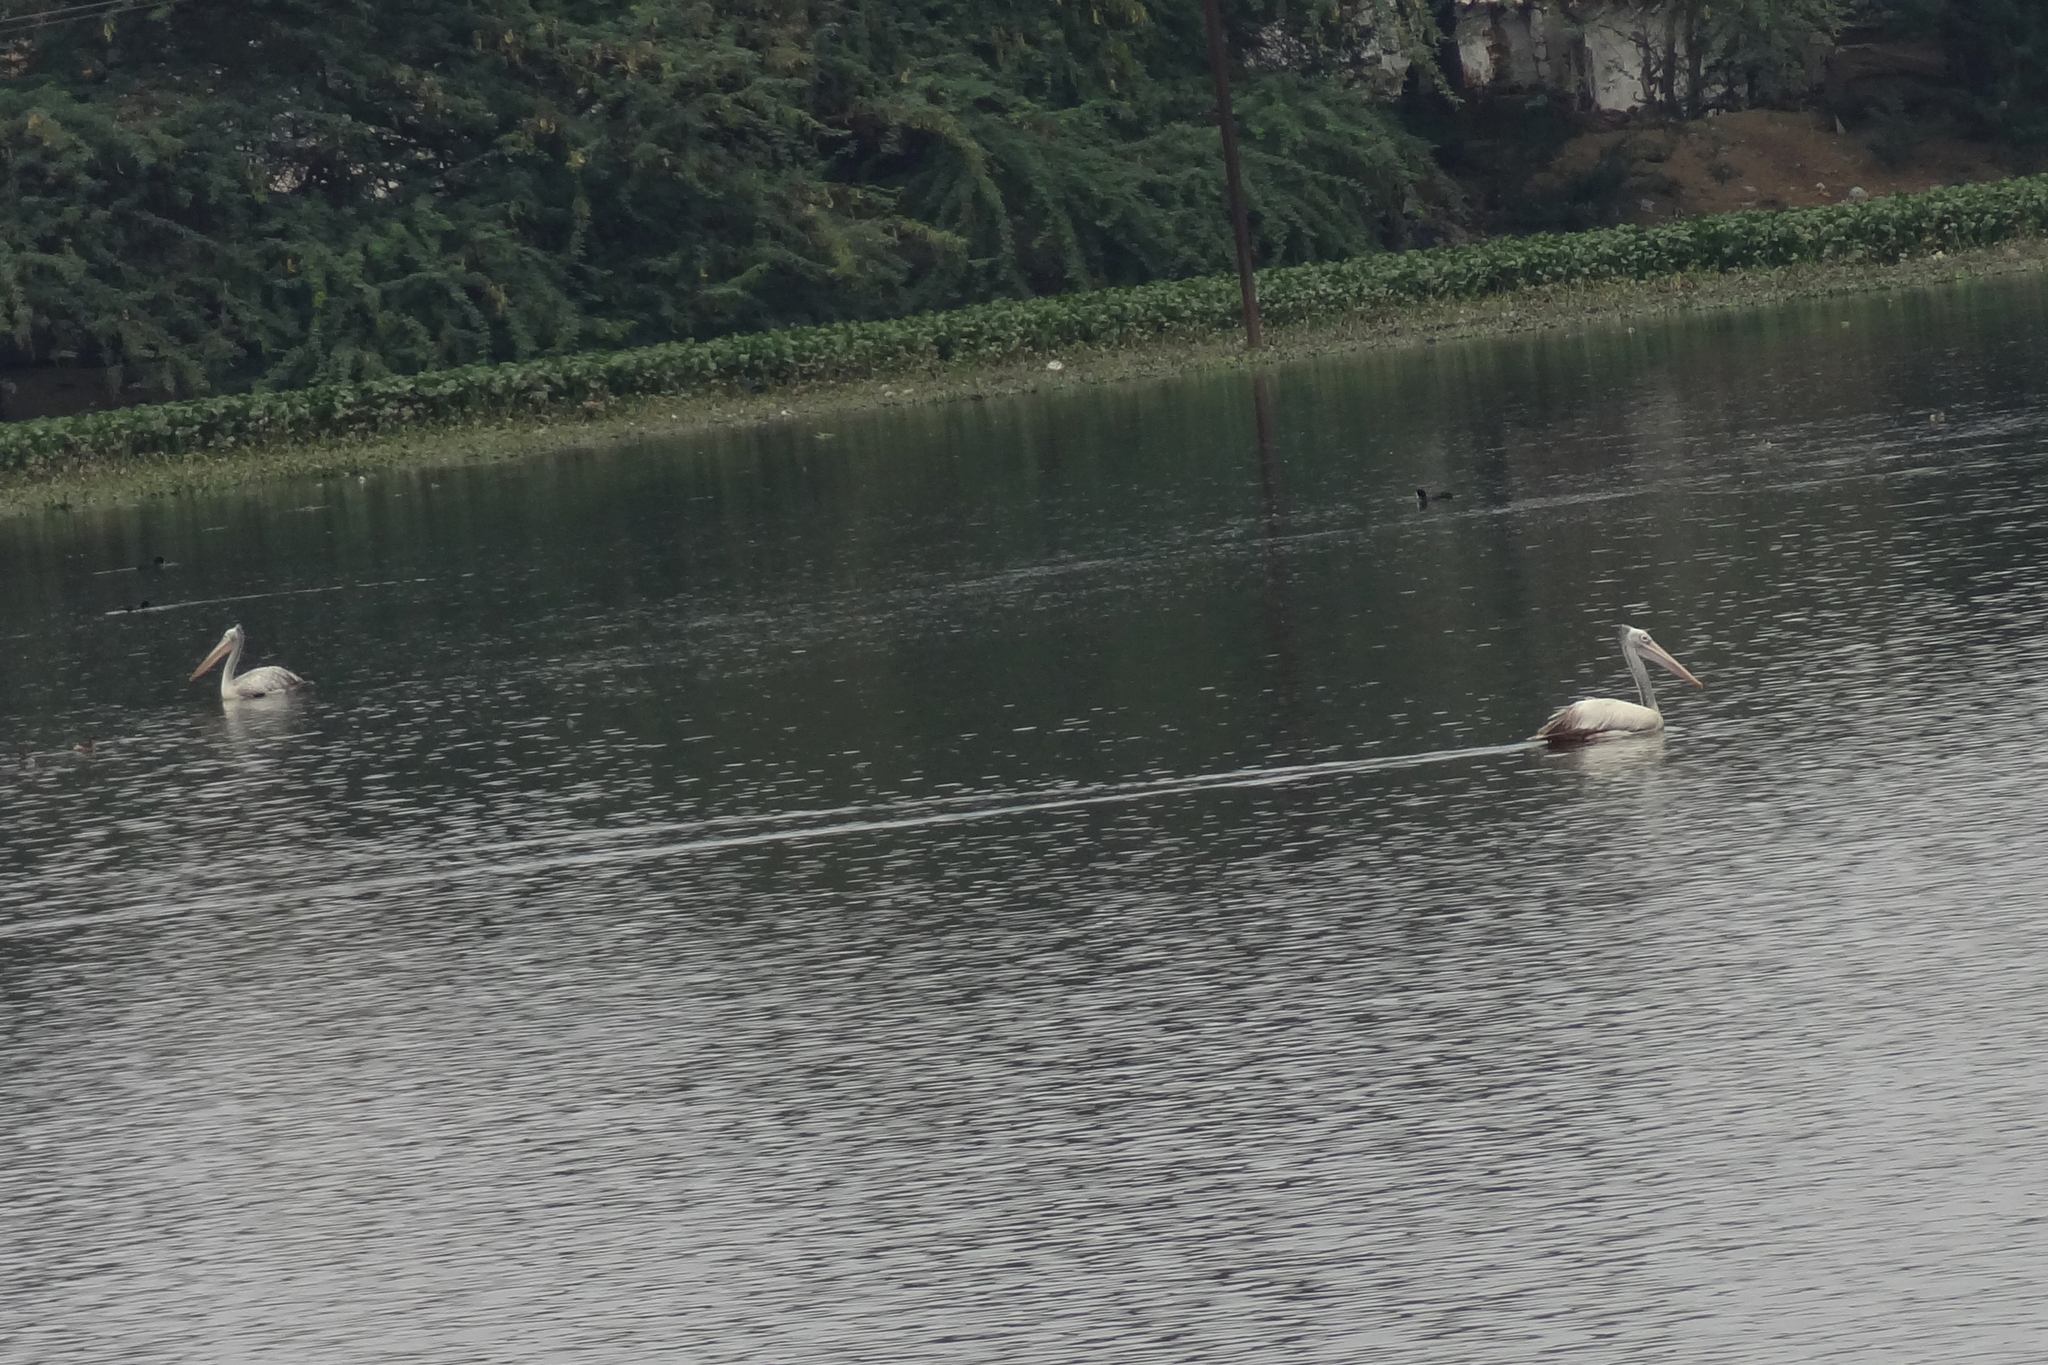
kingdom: Animalia
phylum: Chordata
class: Aves
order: Pelecaniformes
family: Pelecanidae
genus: Pelecanus
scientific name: Pelecanus philippensis
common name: Spot-billed pelican
